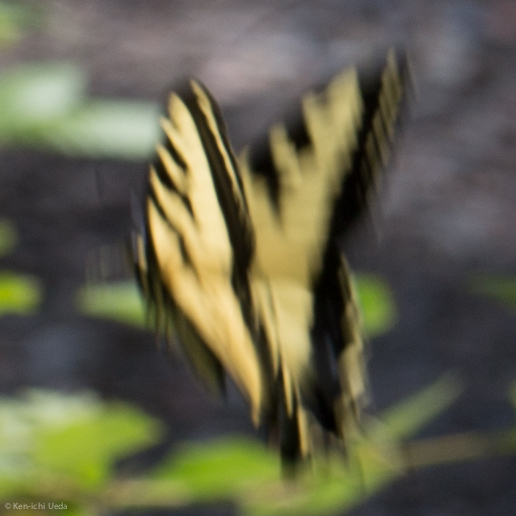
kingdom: Animalia
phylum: Arthropoda
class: Insecta
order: Lepidoptera
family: Papilionidae
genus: Papilio
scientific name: Papilio rutulus
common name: Western tiger swallowtail
